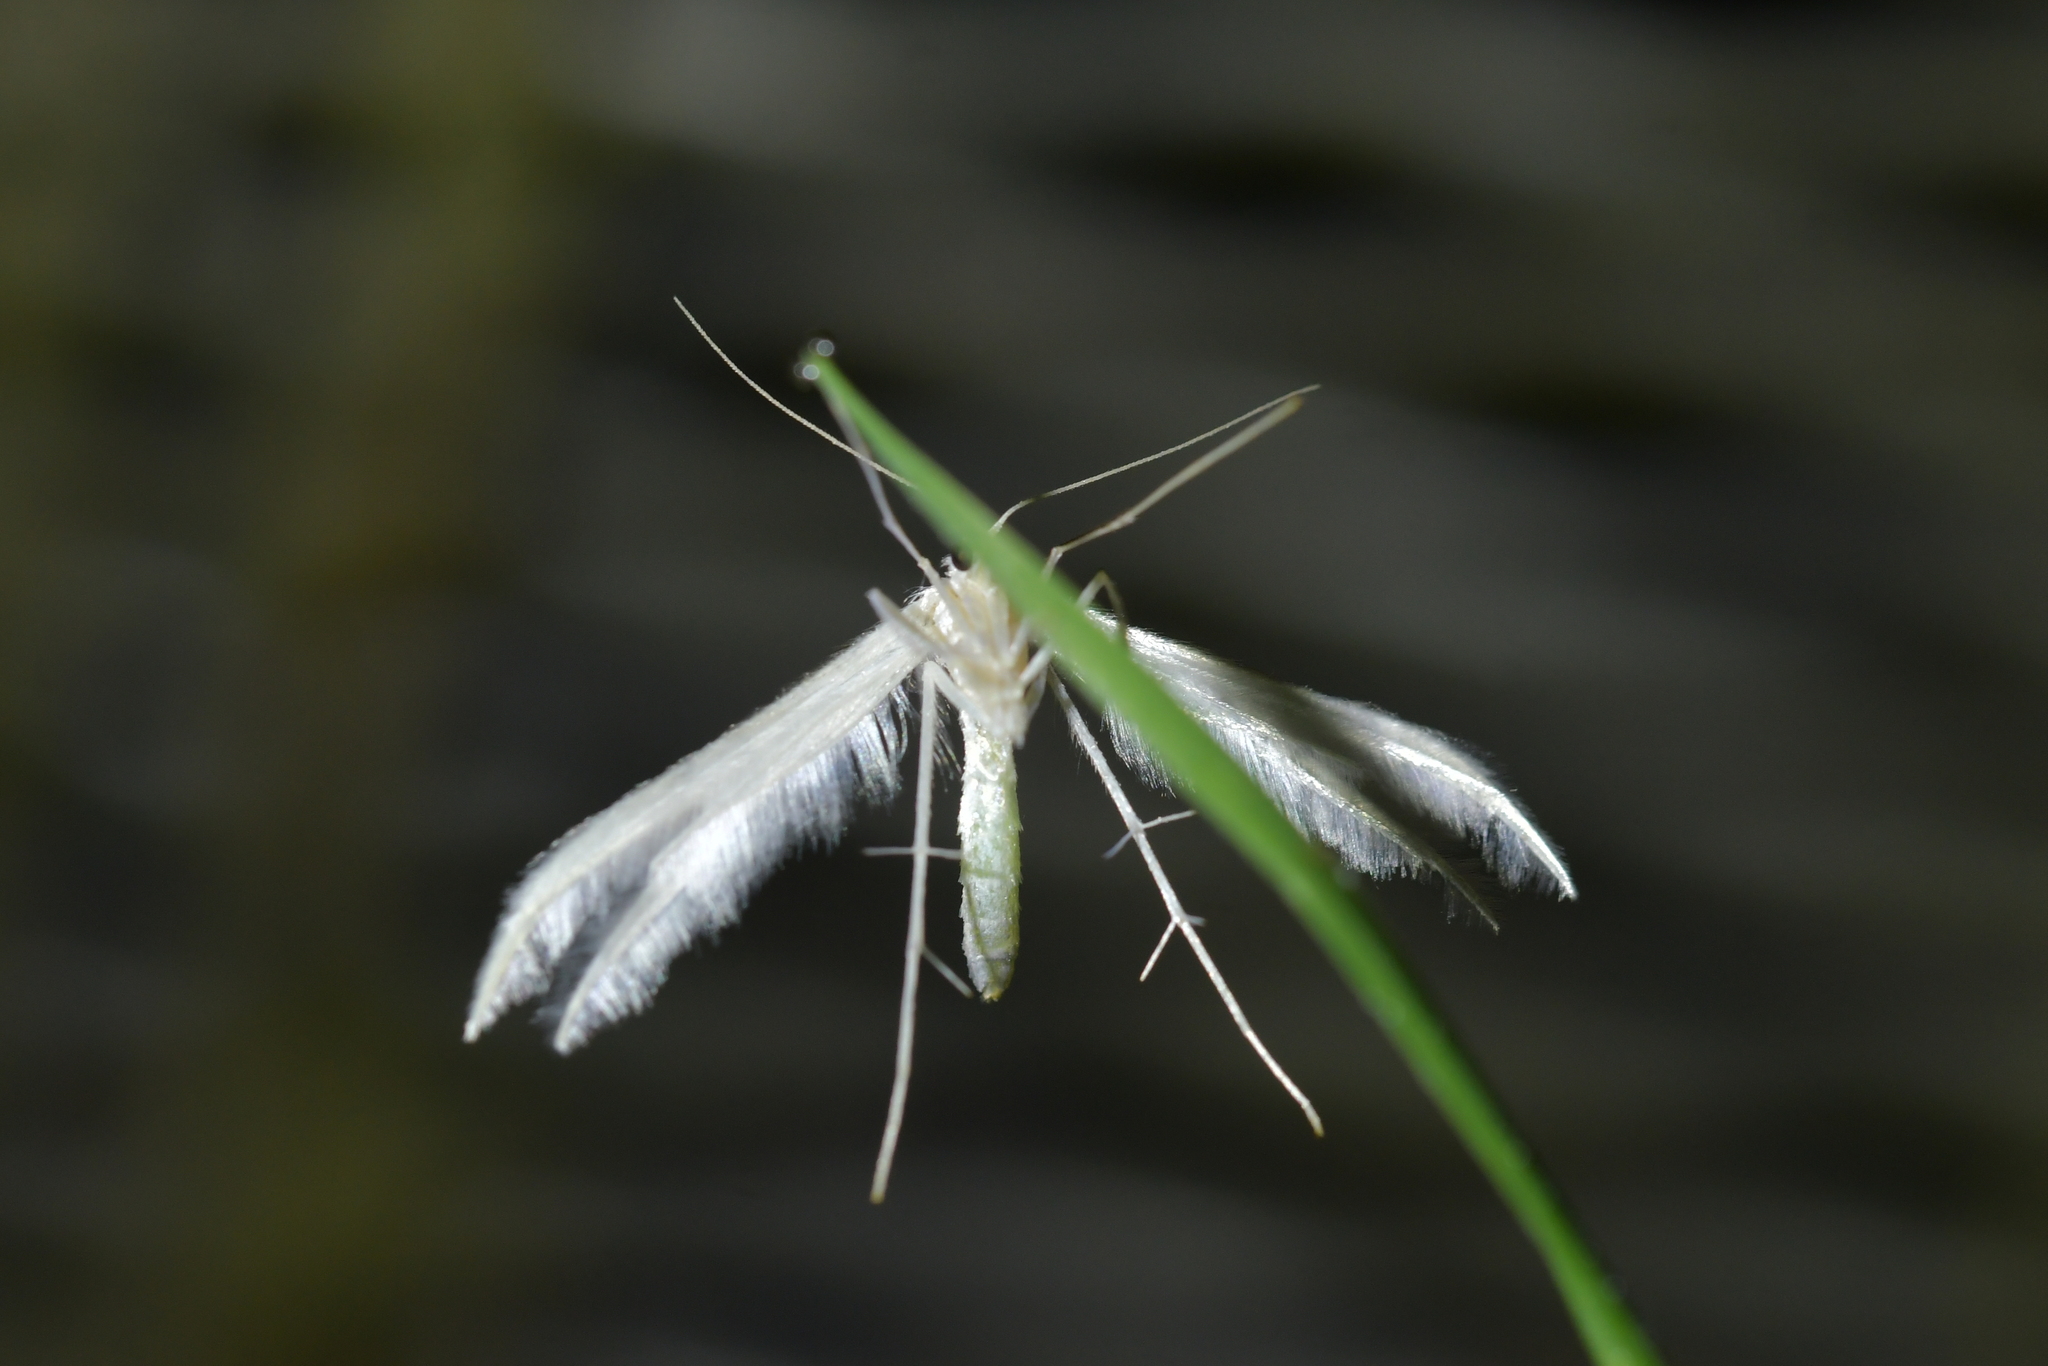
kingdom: Animalia
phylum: Arthropoda
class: Insecta
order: Lepidoptera
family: Pterophoridae
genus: Pterophorus
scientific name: Pterophorus monospilalis
